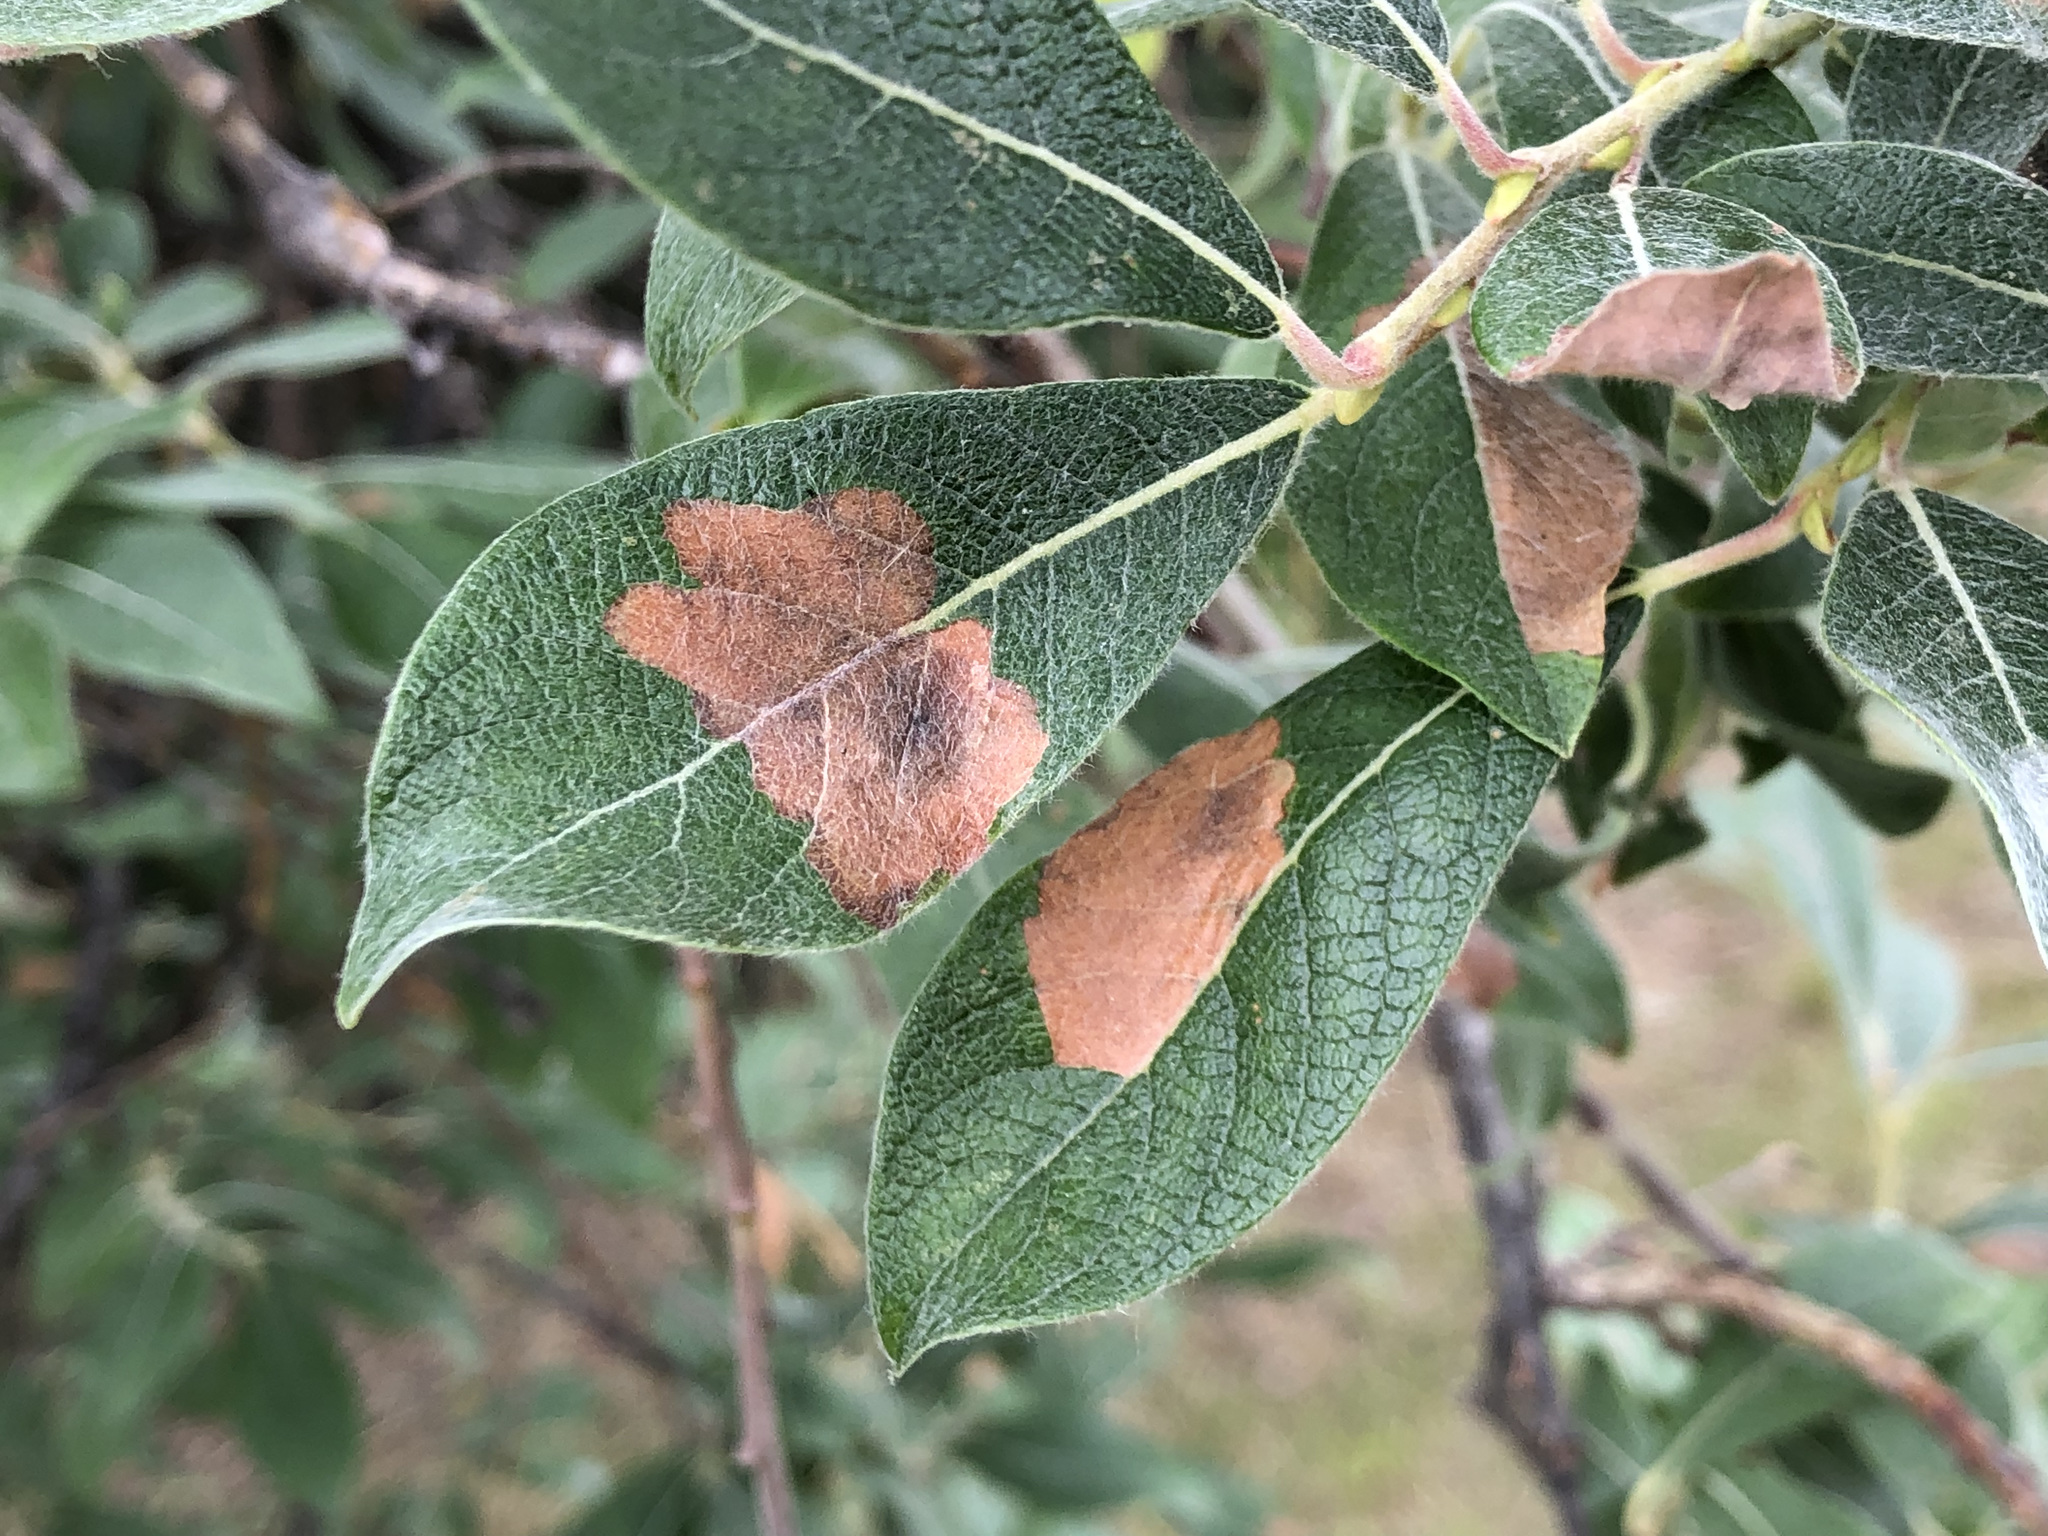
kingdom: Animalia
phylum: Arthropoda
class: Insecta
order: Lepidoptera
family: Gracillariidae
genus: Micrurapteryx
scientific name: Micrurapteryx salicifoliella
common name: Willow leaf blotch miner moth
